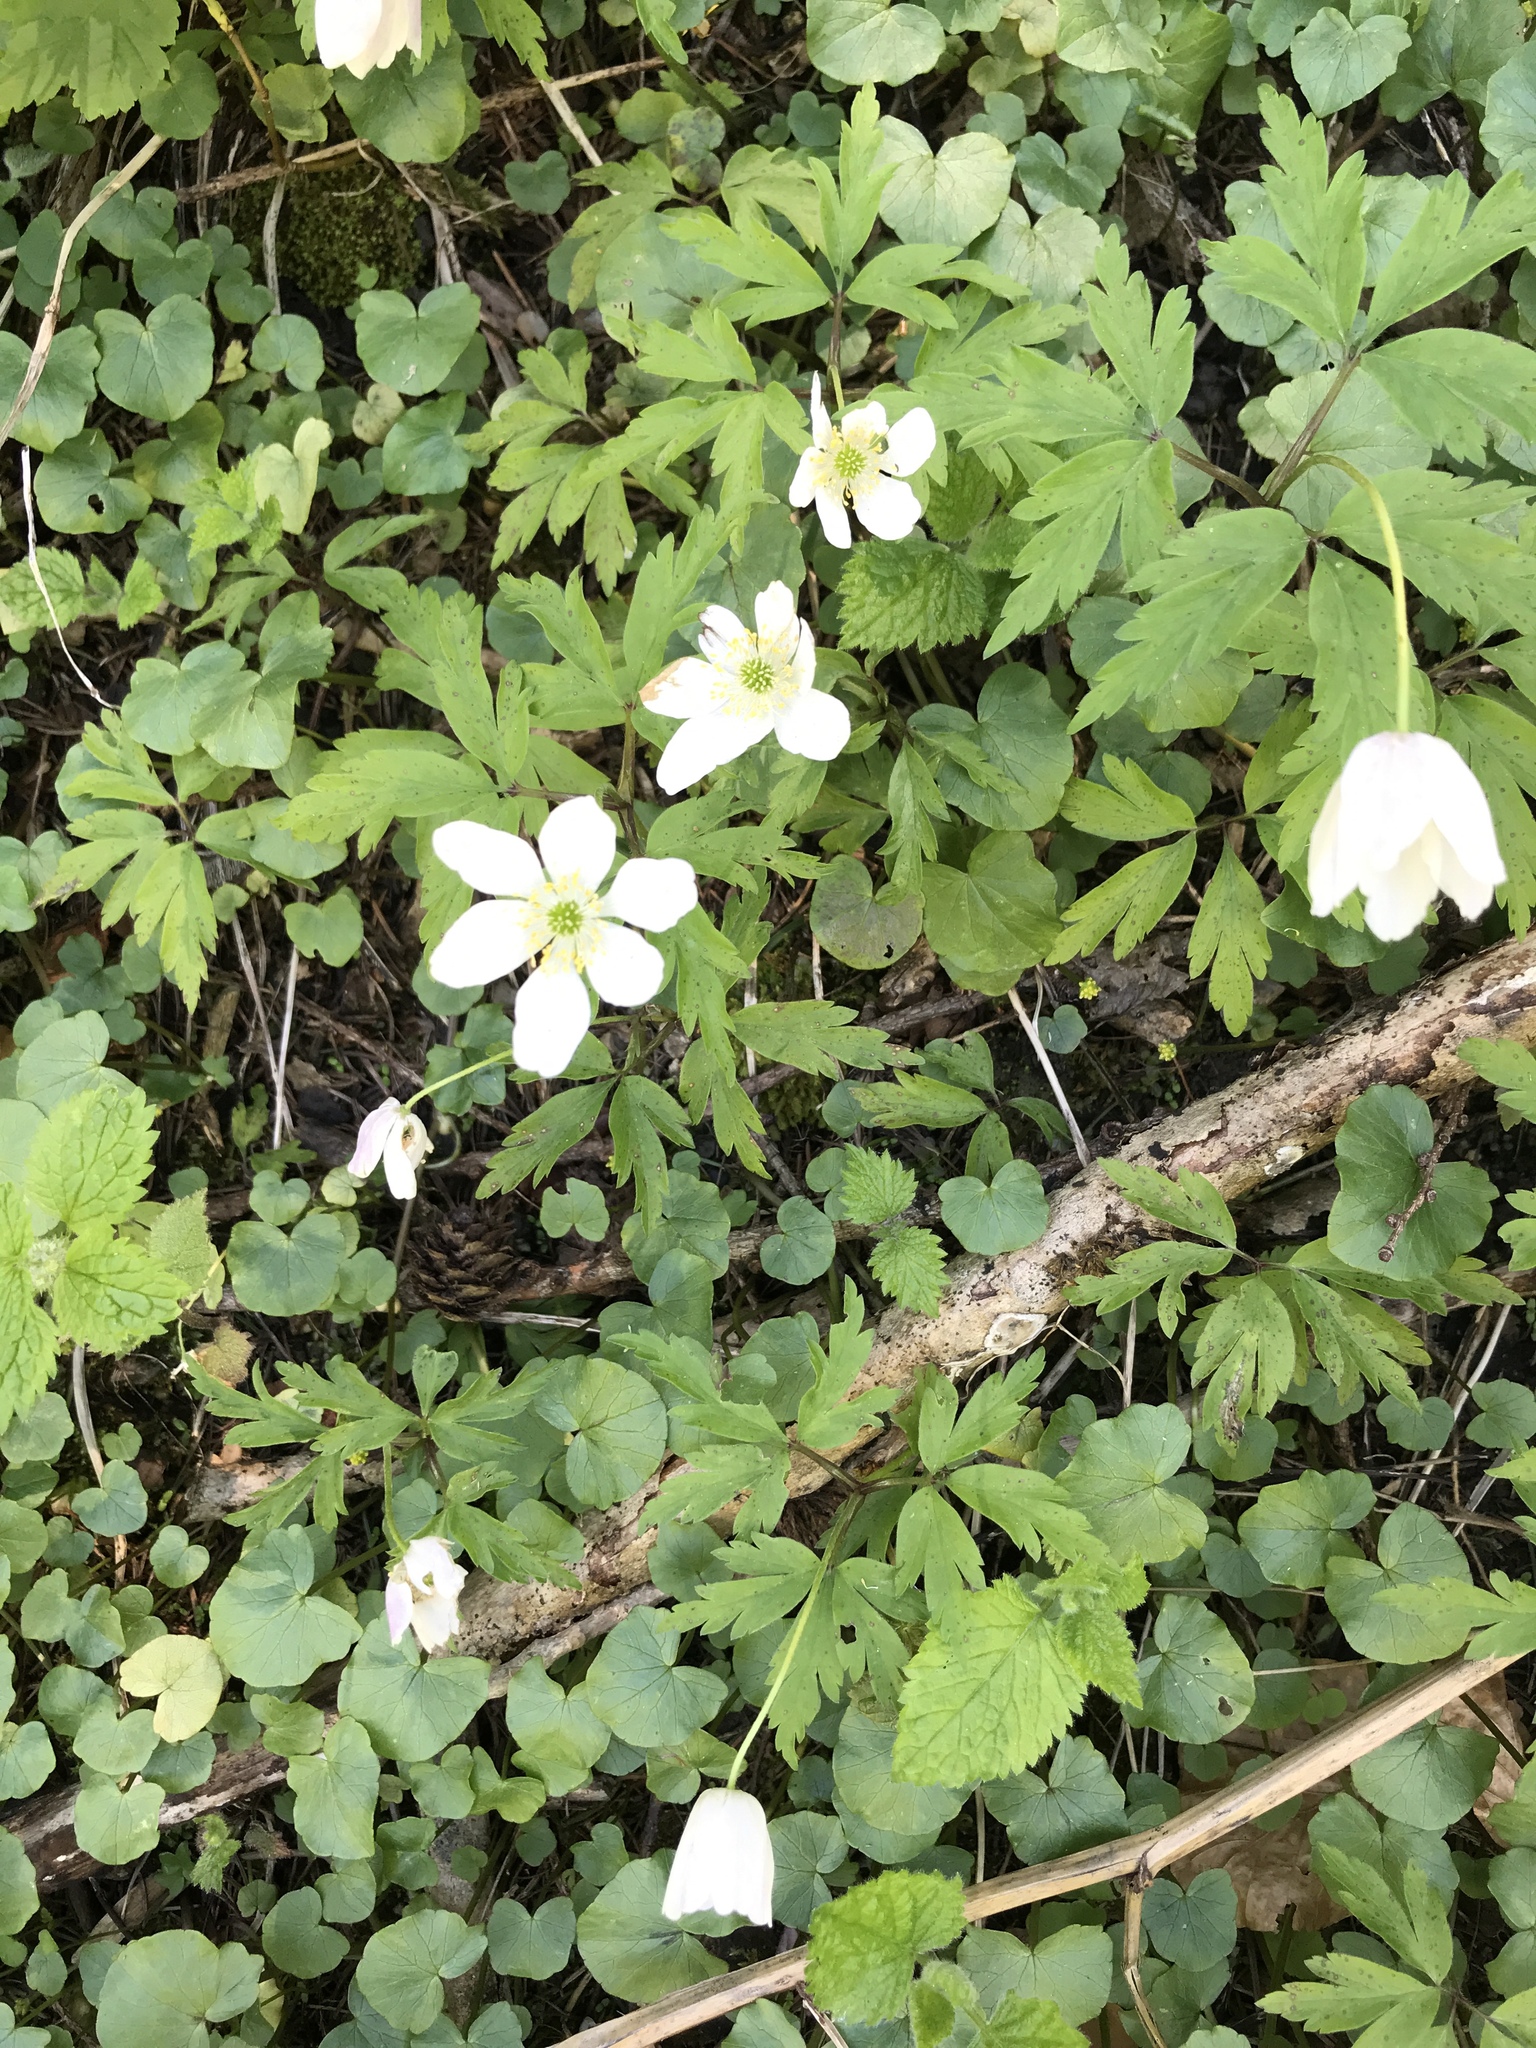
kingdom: Plantae
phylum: Tracheophyta
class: Magnoliopsida
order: Ranunculales
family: Ranunculaceae
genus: Anemone
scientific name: Anemone nemorosa
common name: Wood anemone
